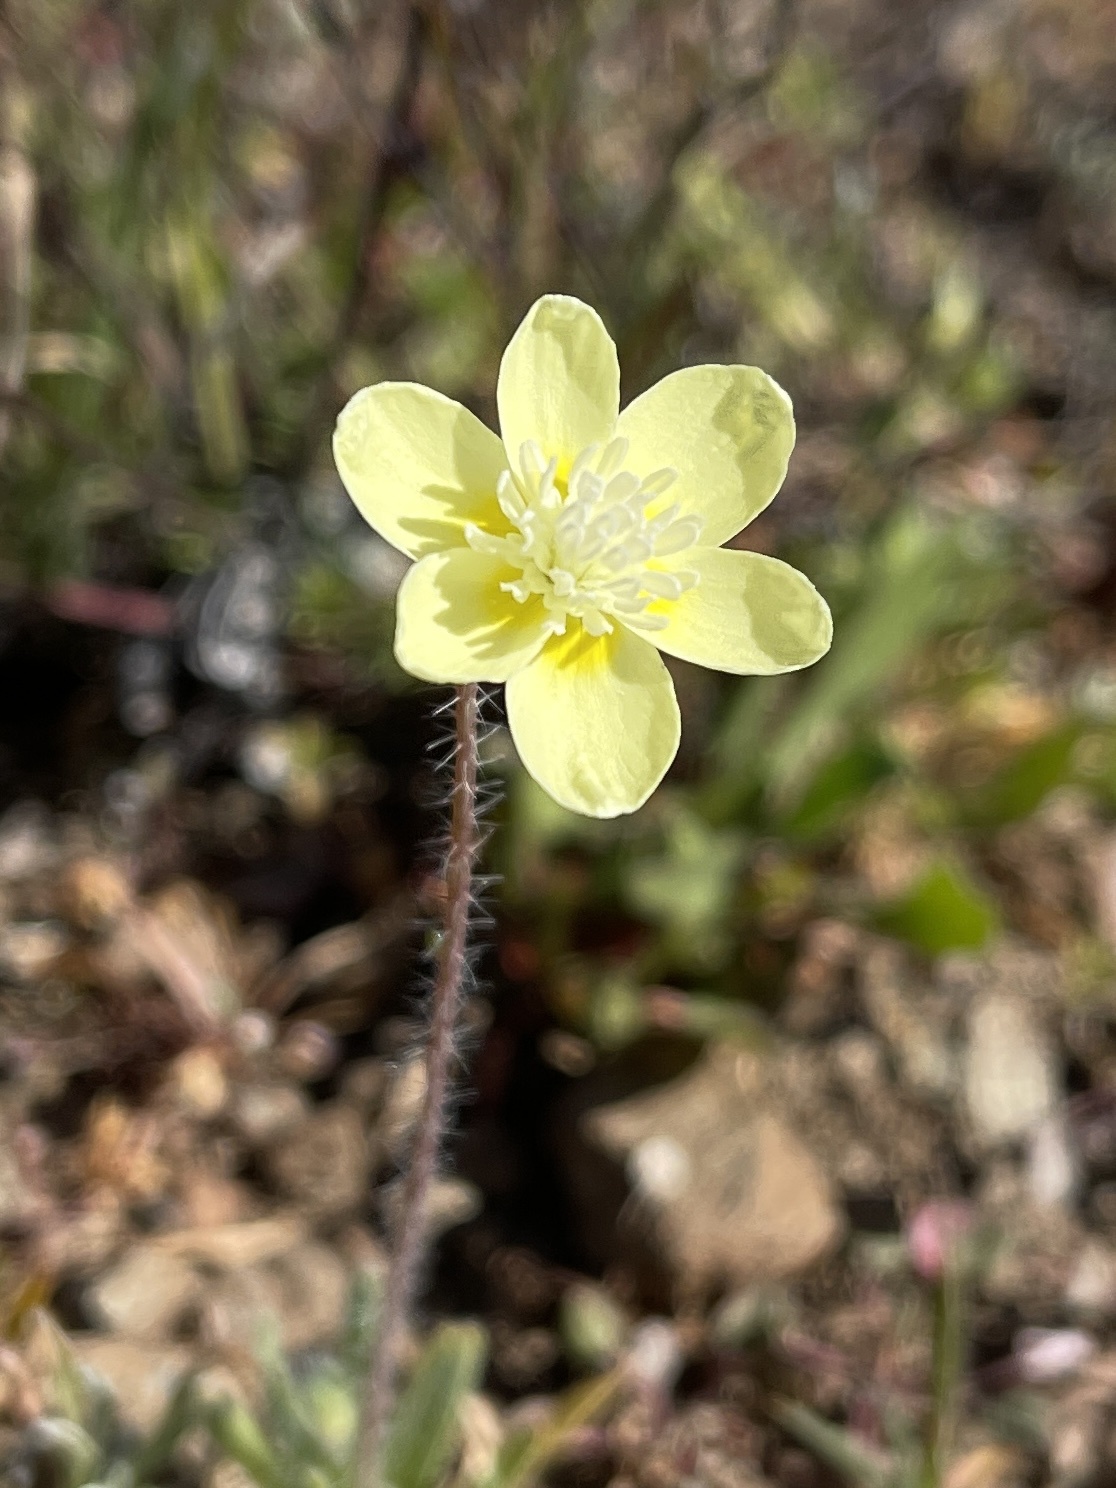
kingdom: Plantae
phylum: Tracheophyta
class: Magnoliopsida
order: Ranunculales
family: Papaveraceae
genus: Platystemon
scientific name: Platystemon californicus
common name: Cream-cups
